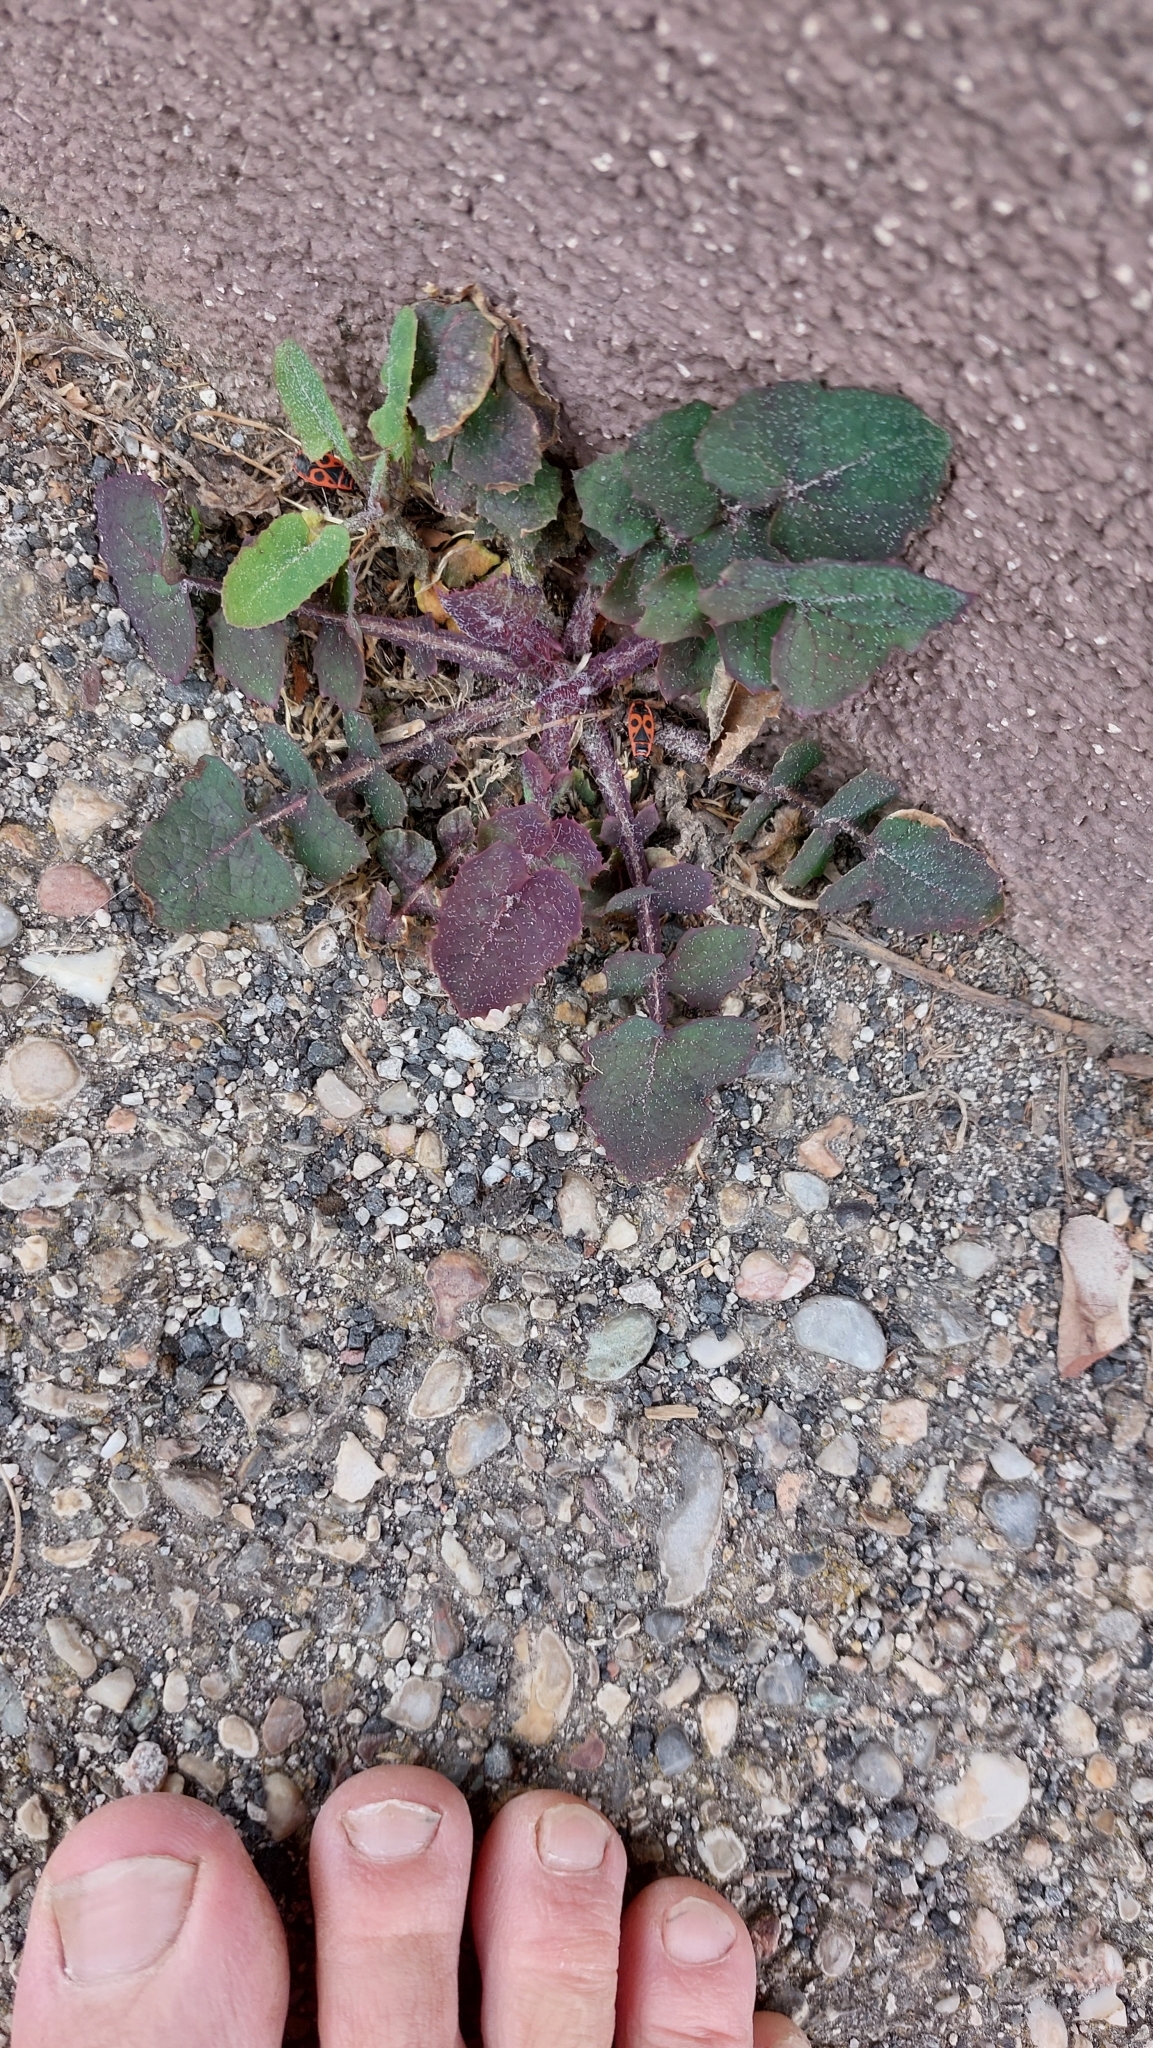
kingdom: Plantae
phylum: Tracheophyta
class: Magnoliopsida
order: Asterales
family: Asteraceae
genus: Sonchus
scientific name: Sonchus oleraceus
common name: Common sowthistle
